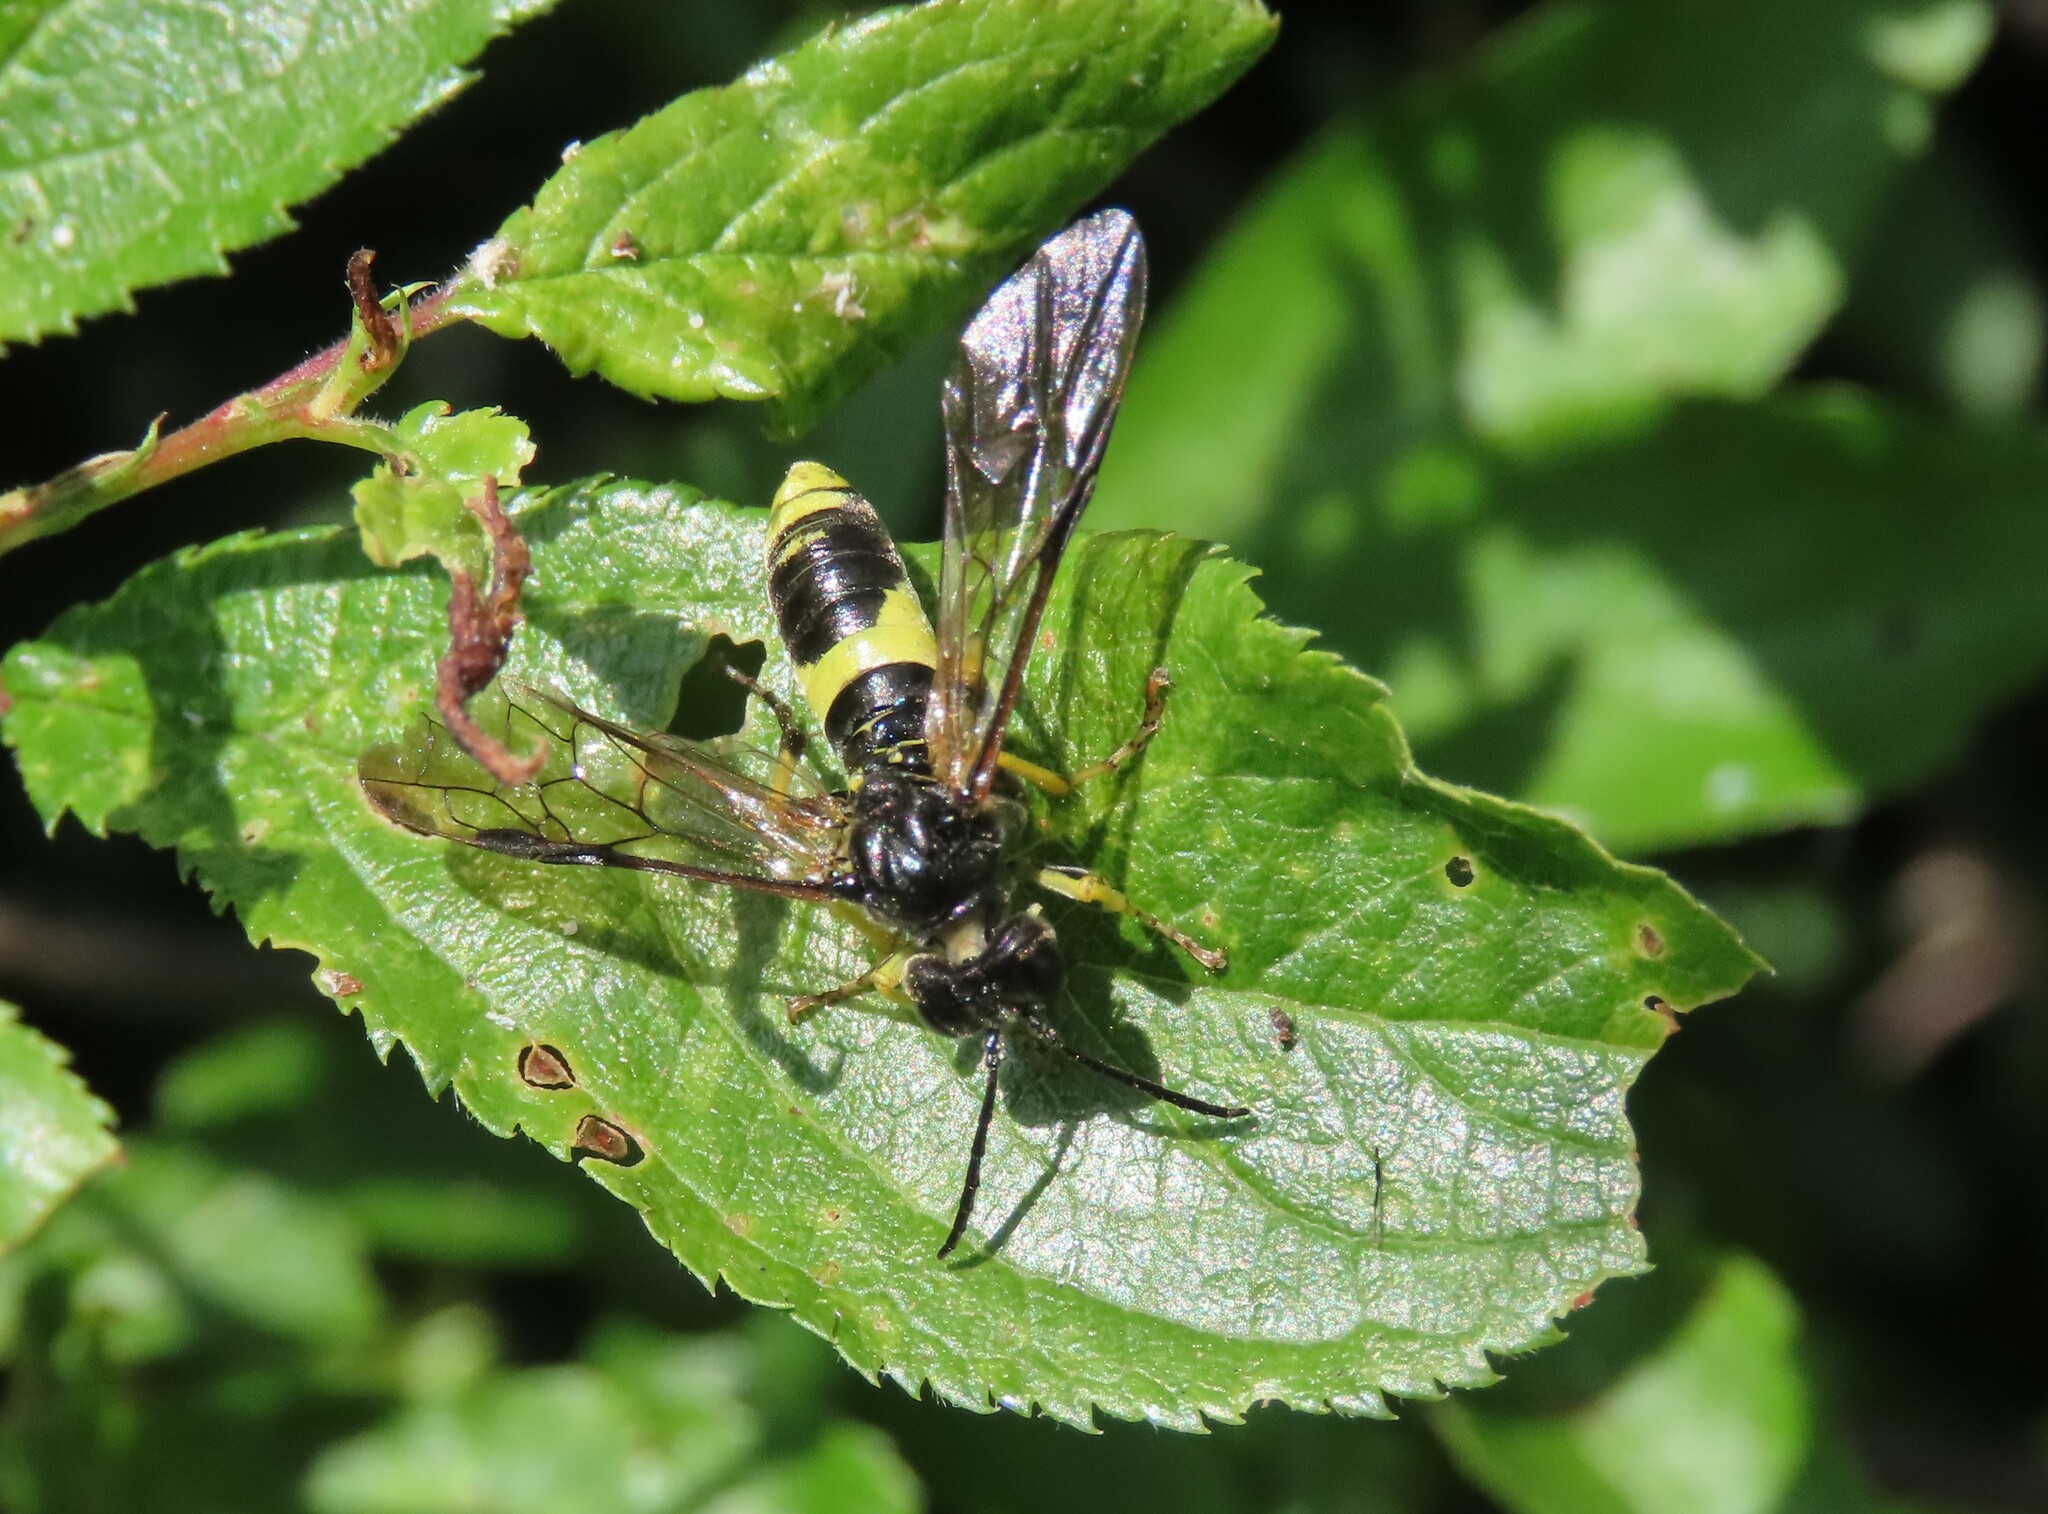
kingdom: Animalia
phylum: Arthropoda
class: Insecta
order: Hymenoptera
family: Tenthredinidae
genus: Tenthredo
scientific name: Tenthredo temula
